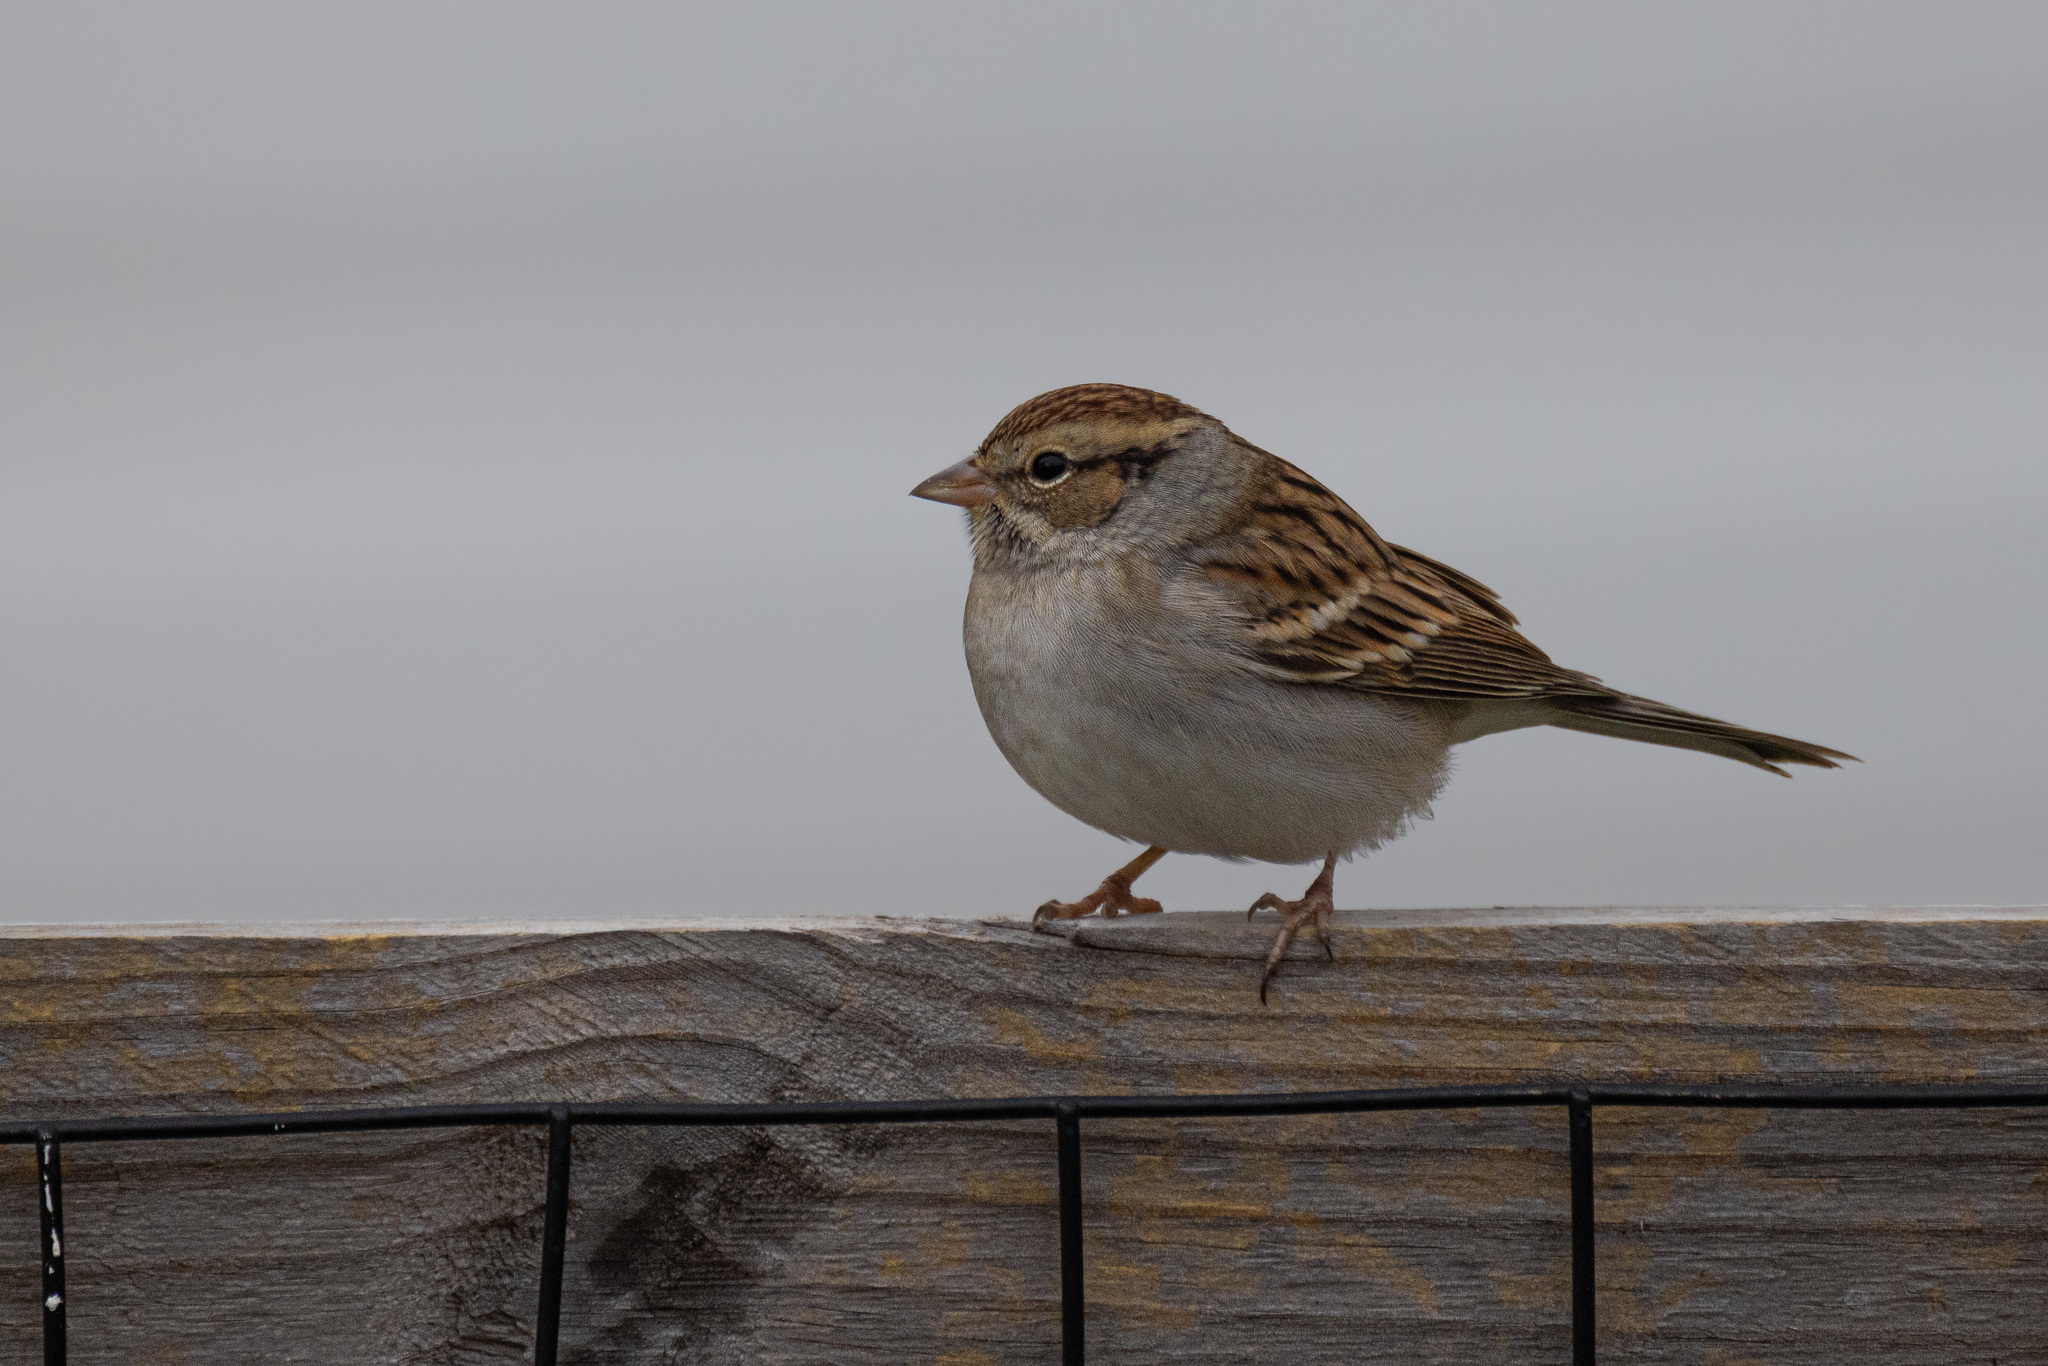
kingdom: Animalia
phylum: Chordata
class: Aves
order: Passeriformes
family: Passerellidae
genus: Spizella
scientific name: Spizella passerina
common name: Chipping sparrow
